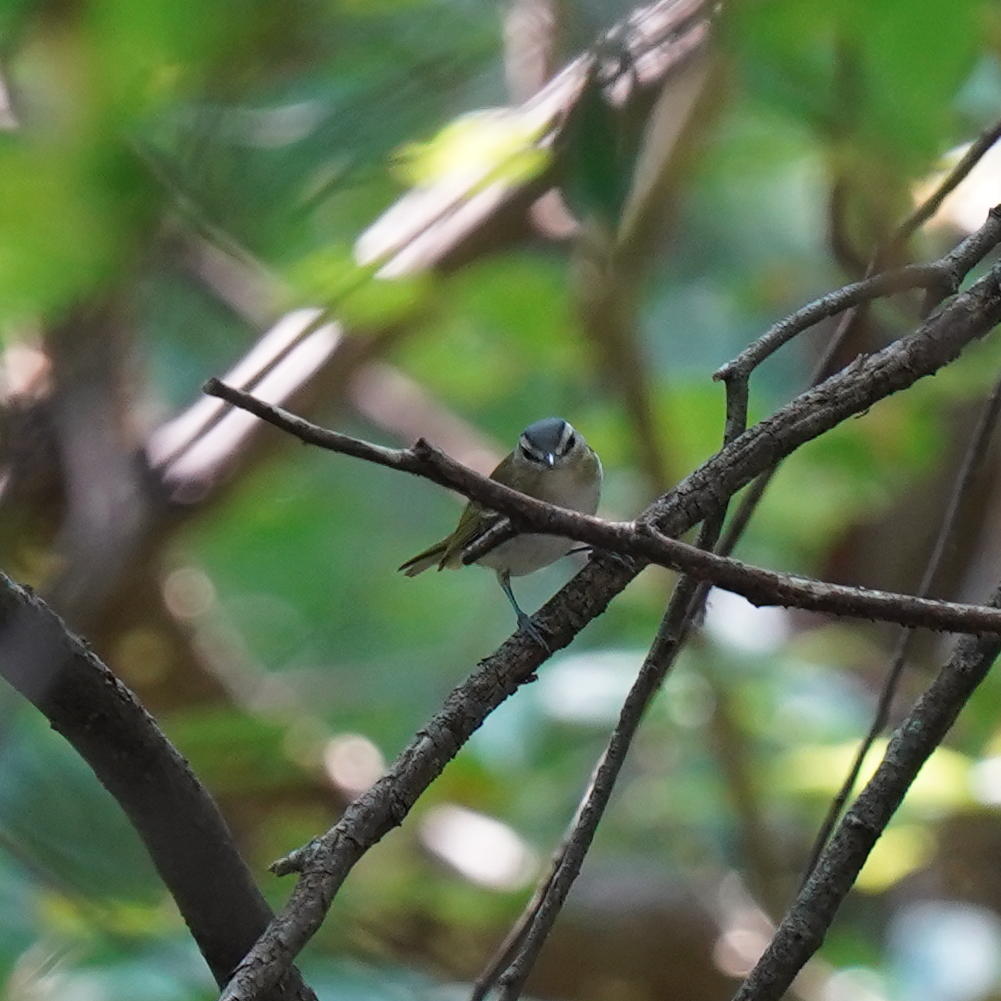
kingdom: Animalia
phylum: Chordata
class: Aves
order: Passeriformes
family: Vireonidae
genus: Vireo
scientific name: Vireo olivaceus
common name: Red-eyed vireo
